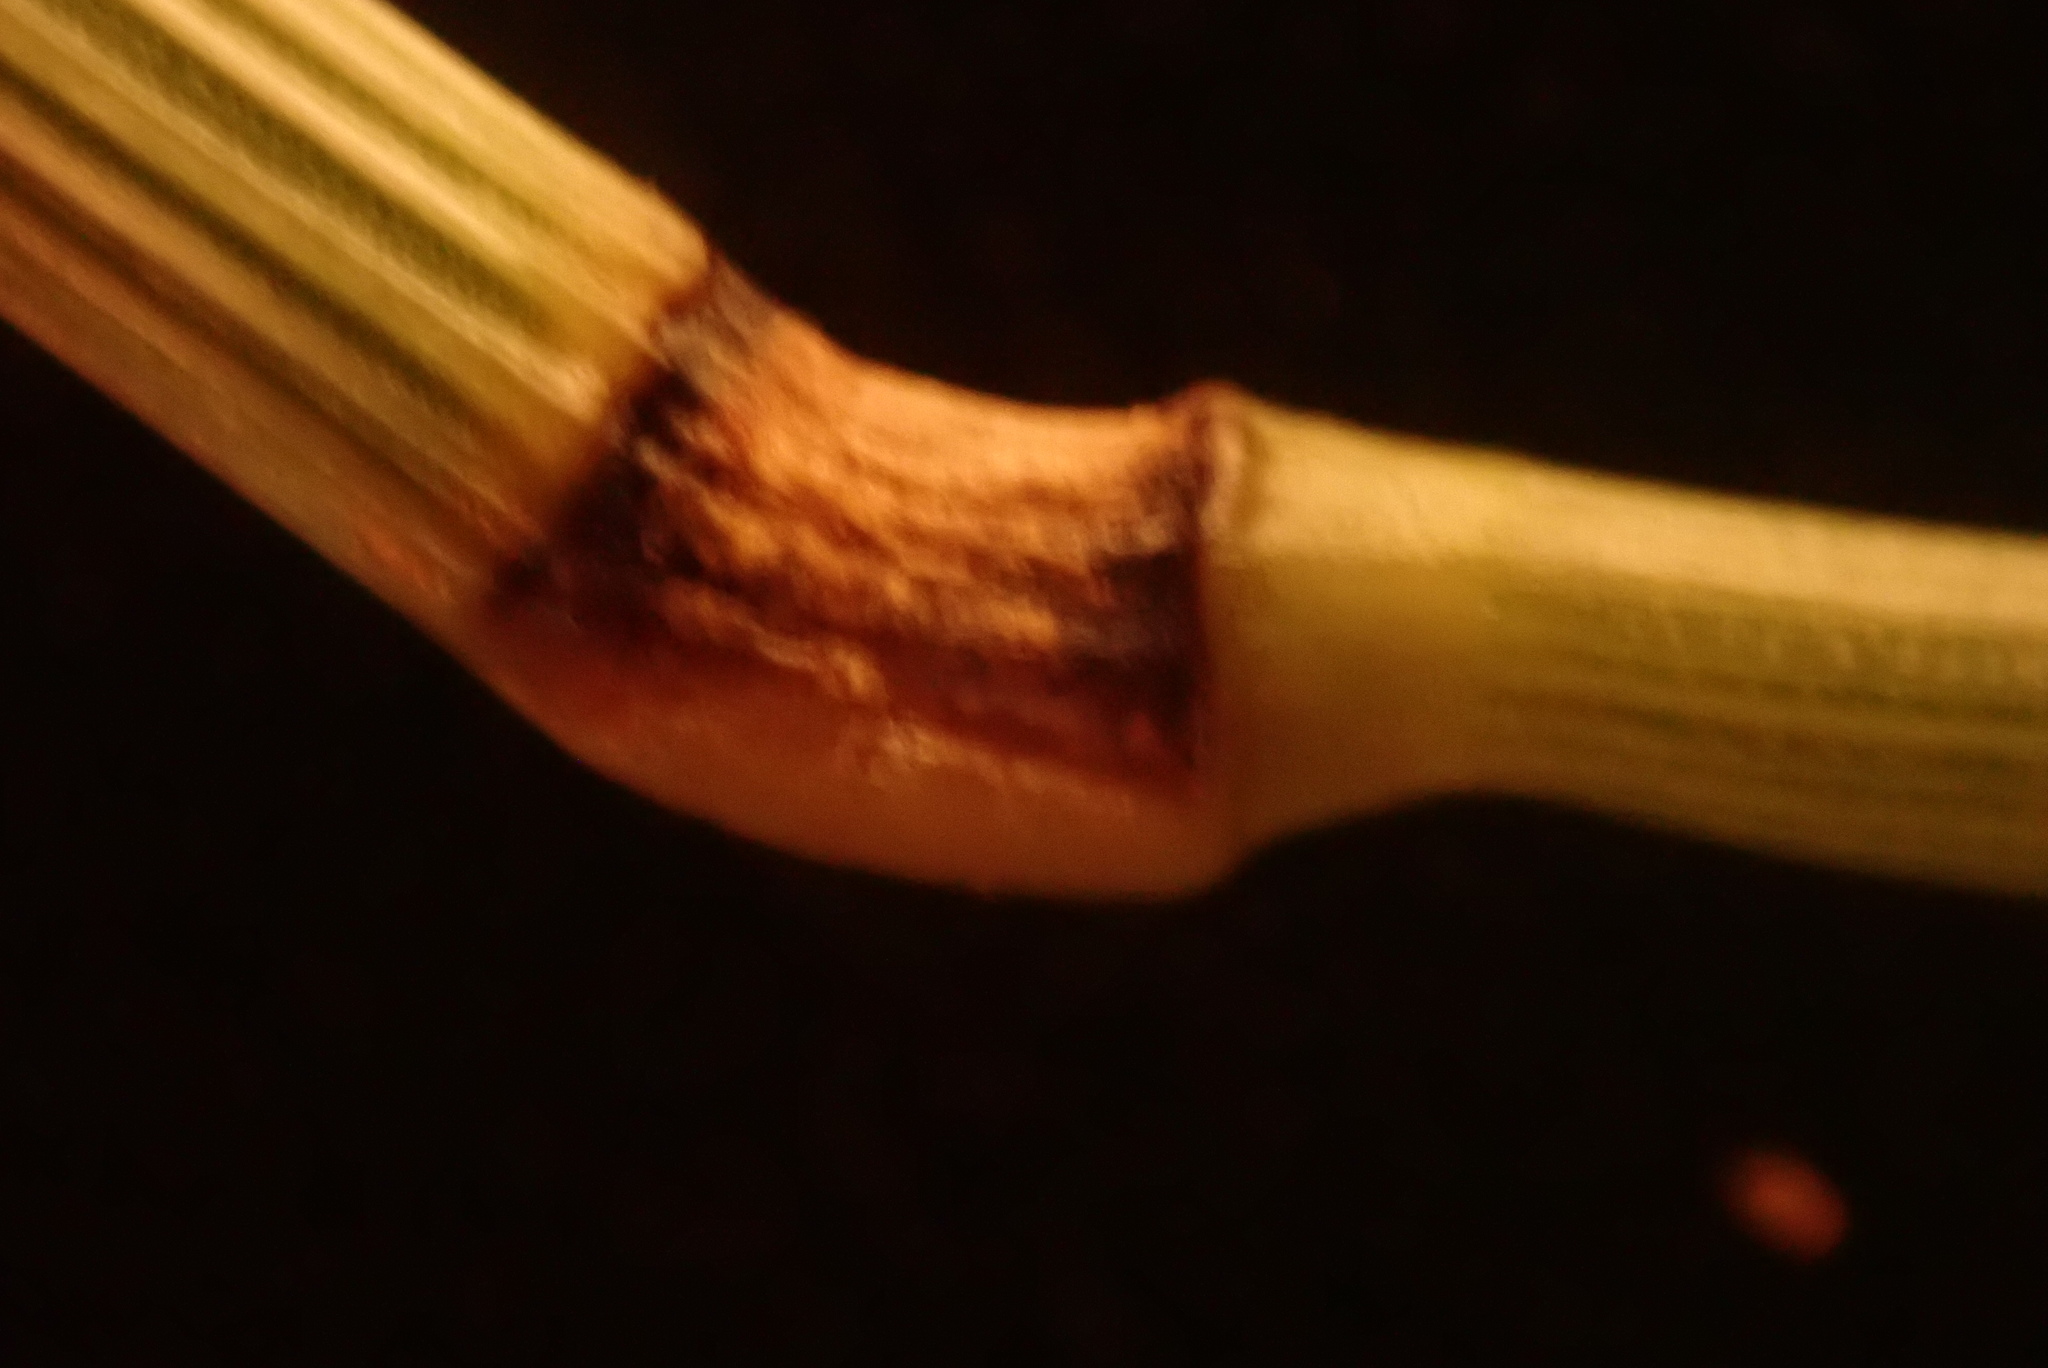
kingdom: Plantae
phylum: Tracheophyta
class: Liliopsida
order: Poales
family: Poaceae
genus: Anthoxanthum
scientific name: Anthoxanthum odoratum
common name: Sweet vernalgrass
